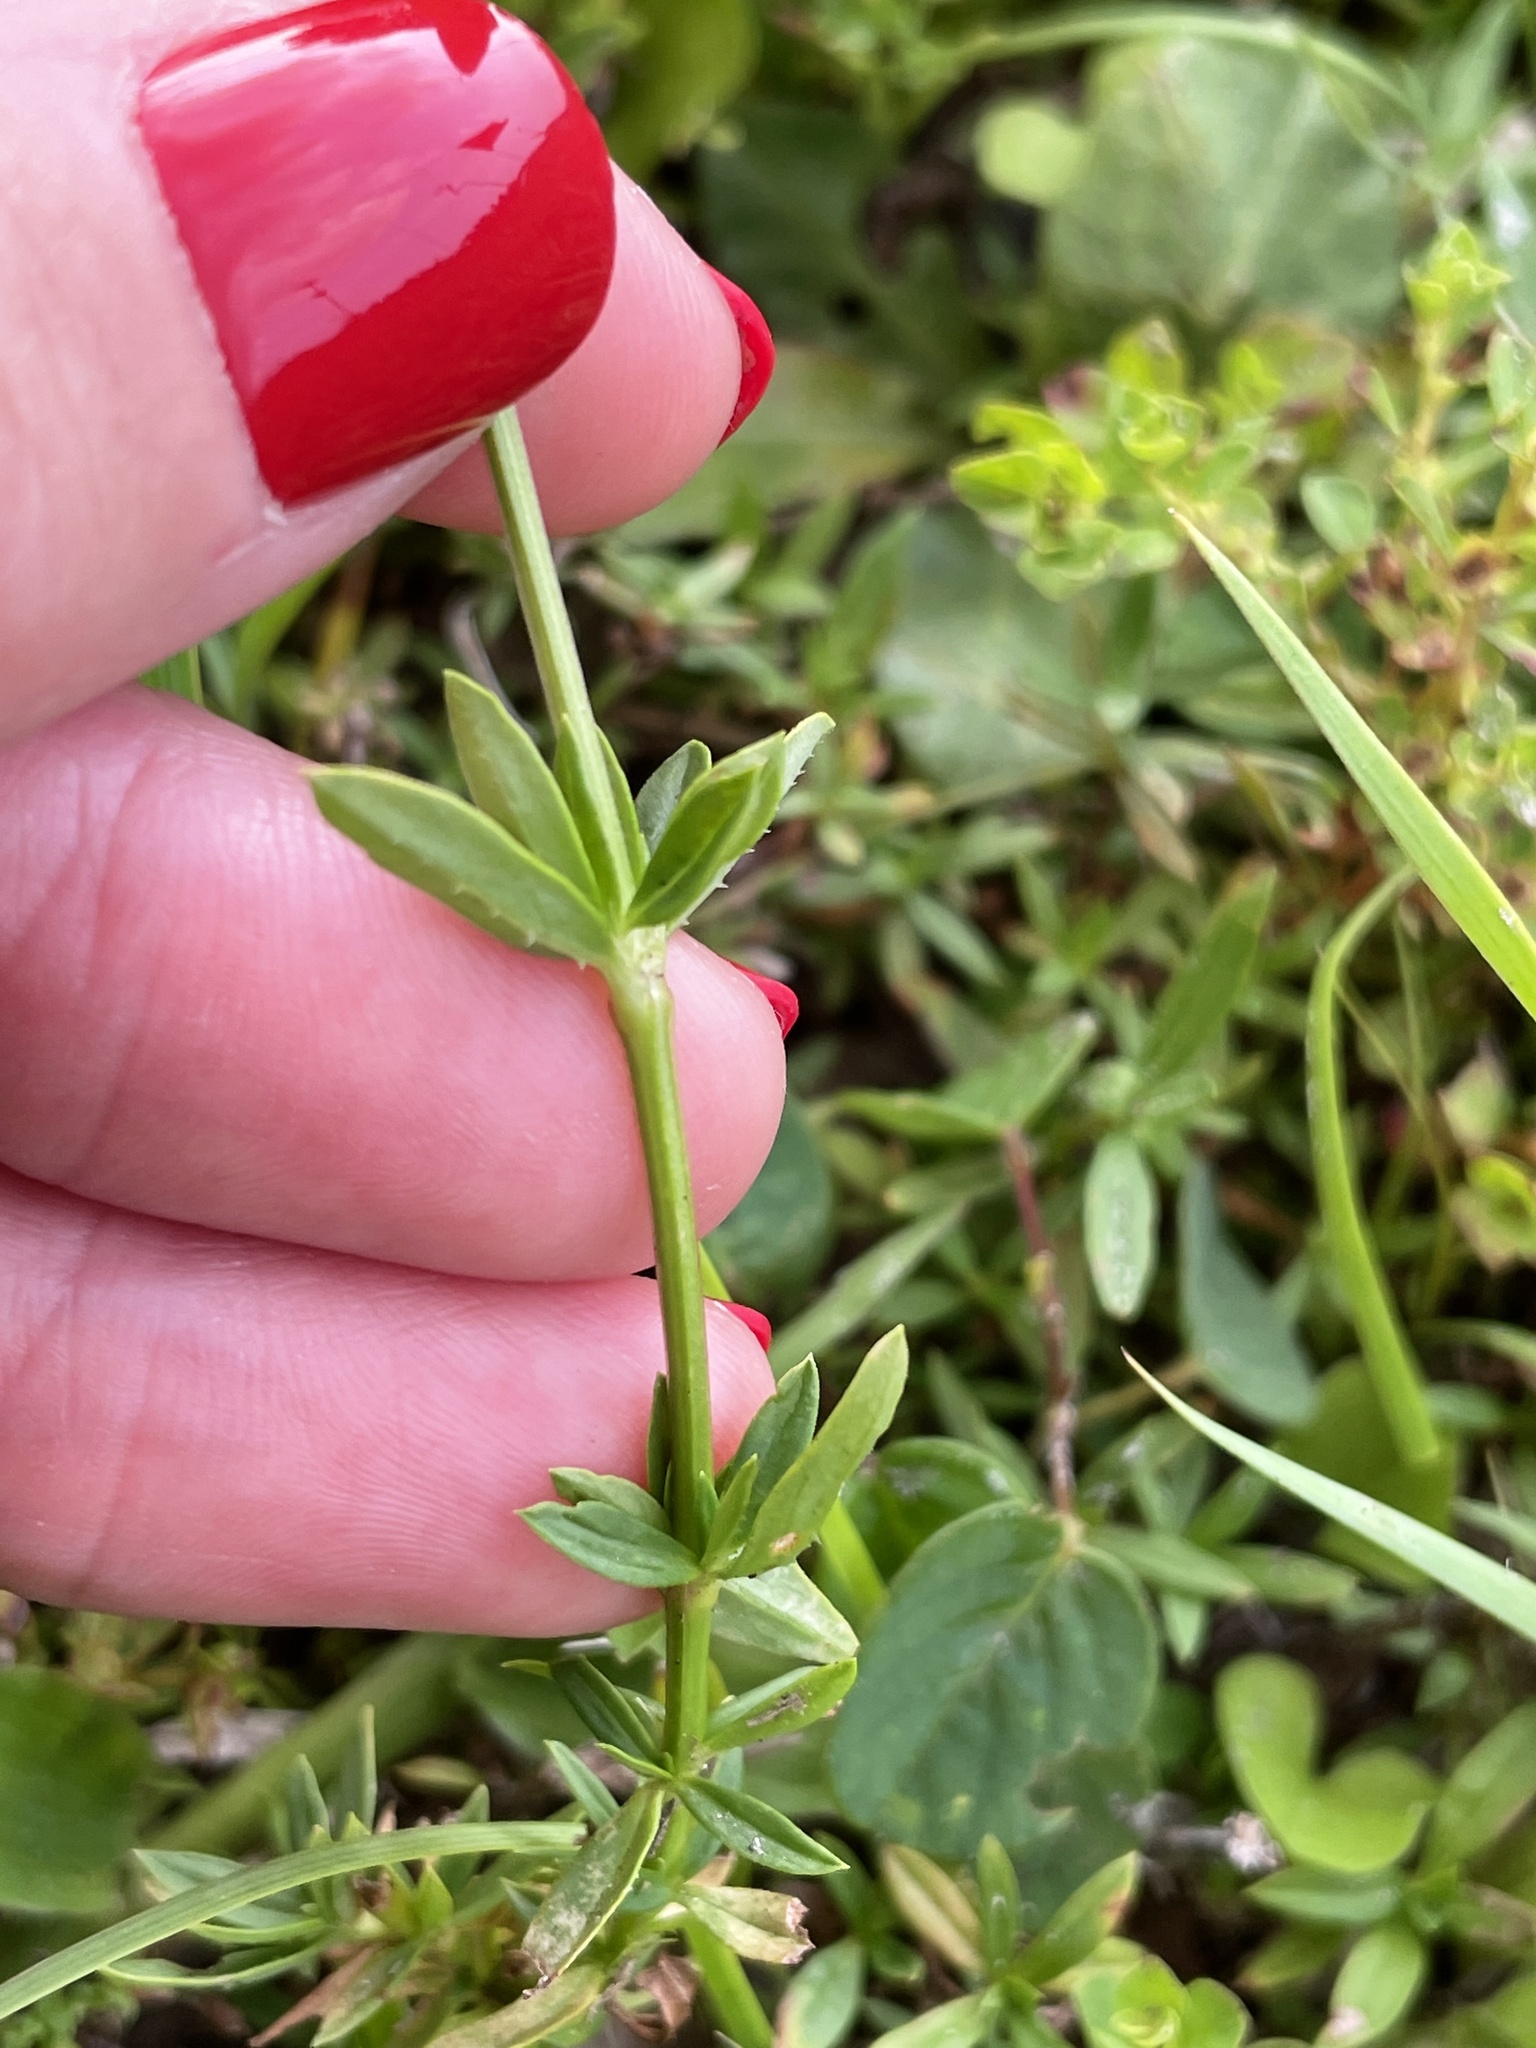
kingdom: Plantae
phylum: Tracheophyta
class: Magnoliopsida
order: Gentianales
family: Rubiaceae
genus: Spermacoce
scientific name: Spermacoce verticillata
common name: Shrubby false buttonweed
